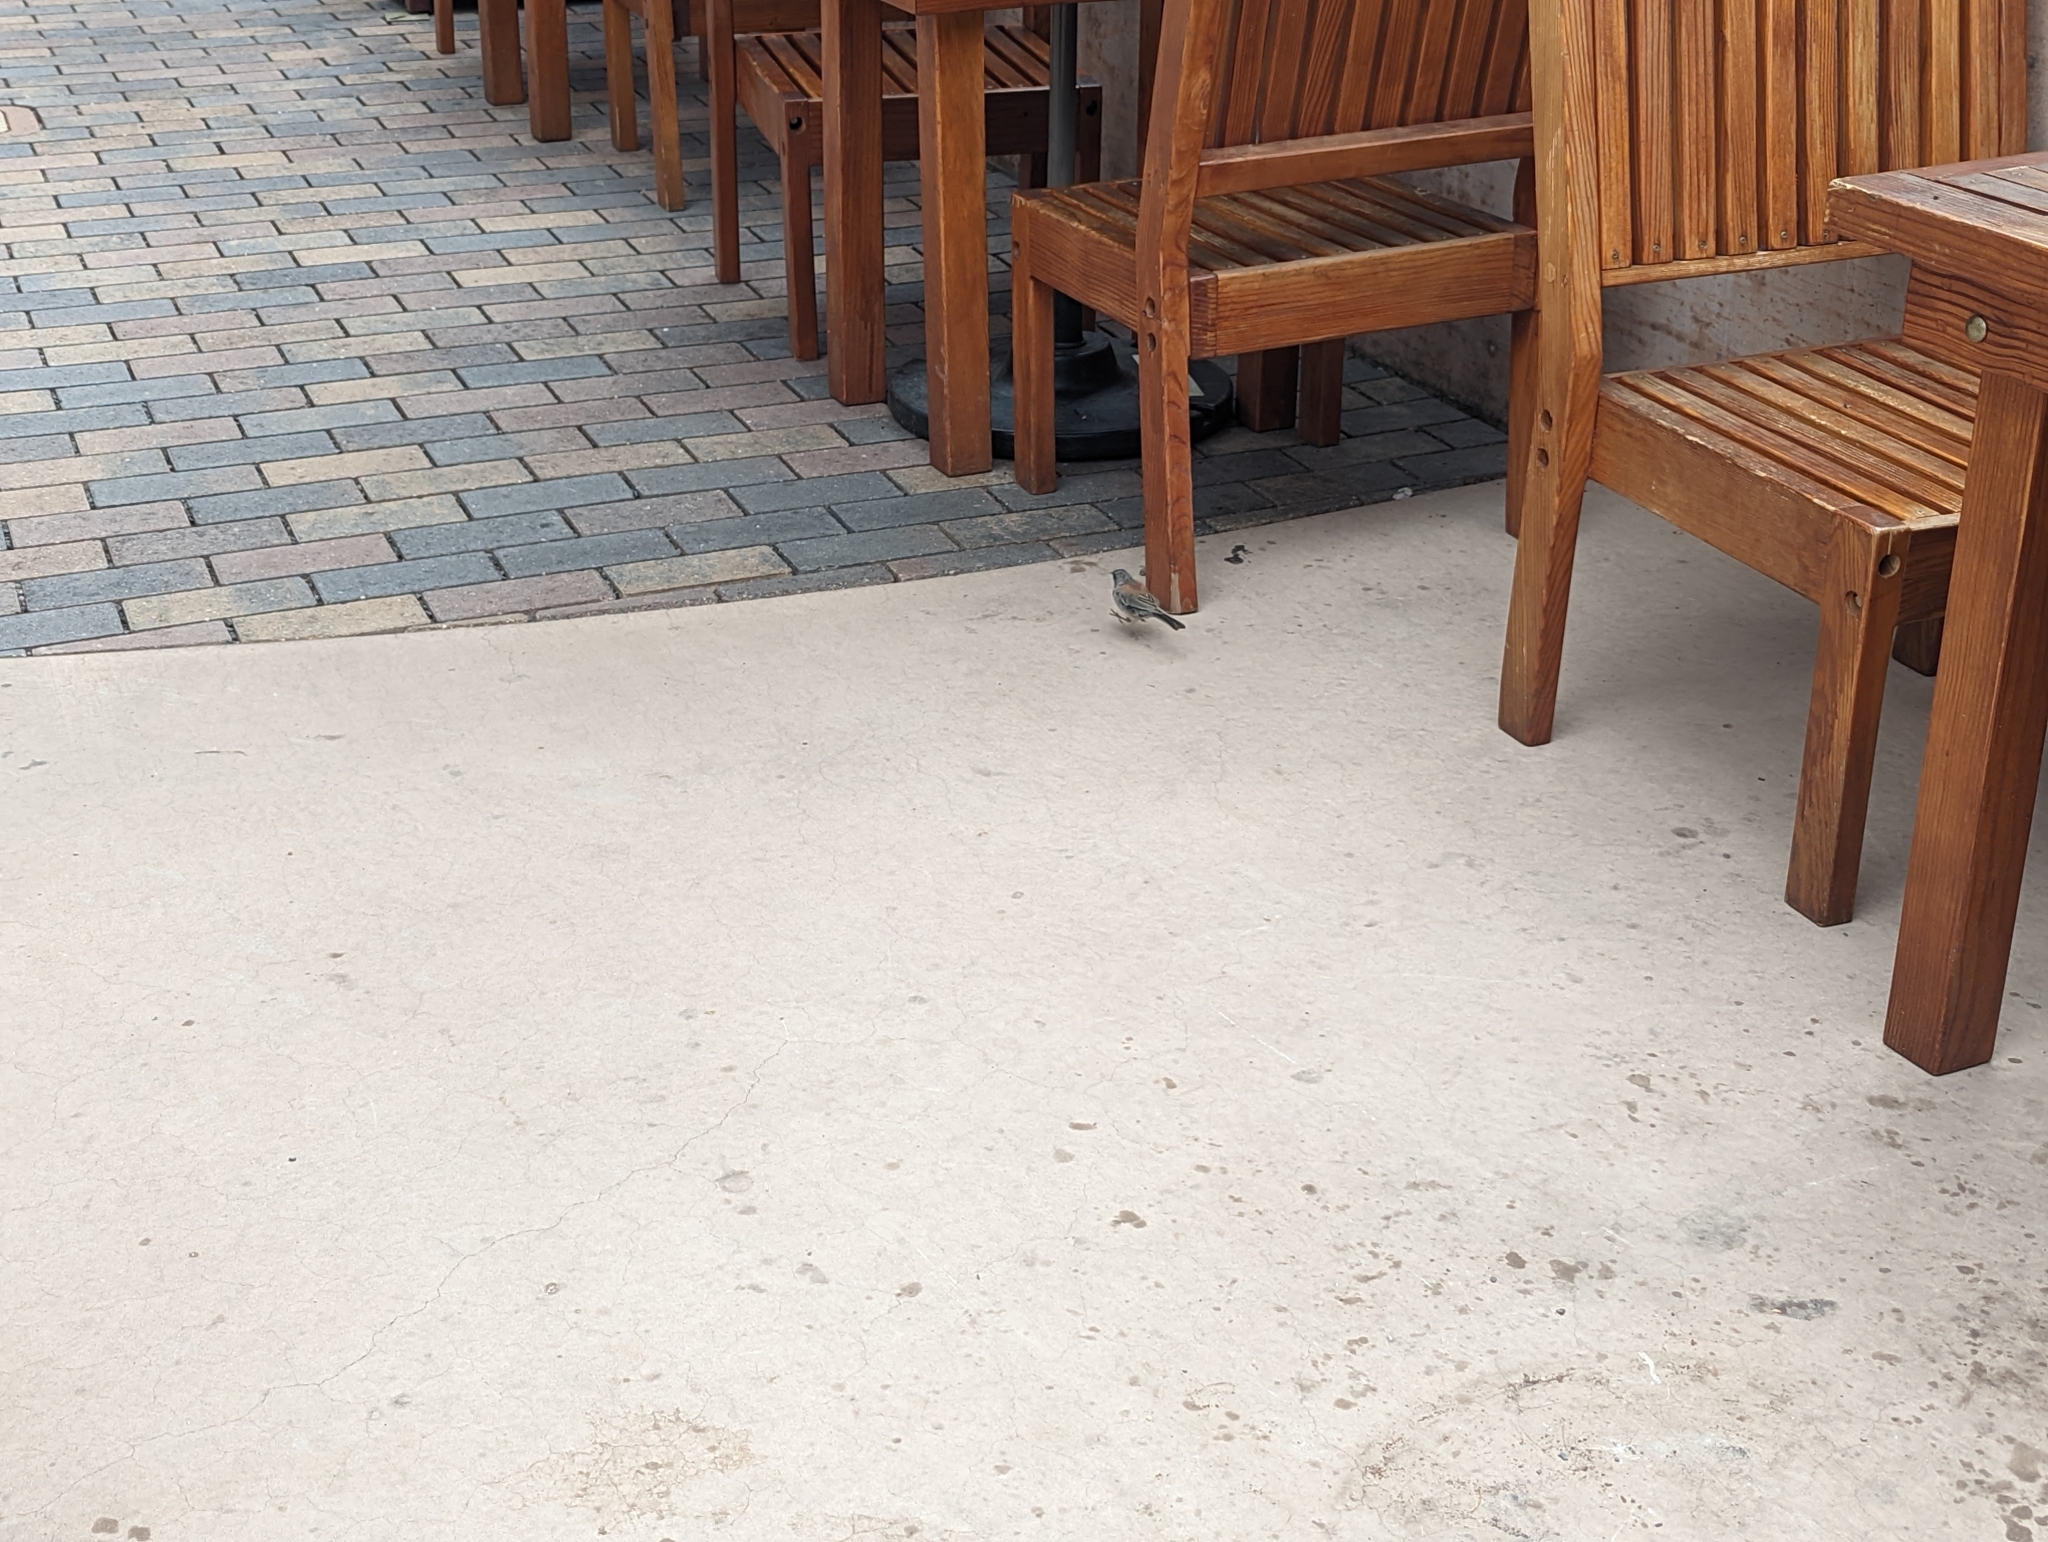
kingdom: Animalia
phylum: Chordata
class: Aves
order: Passeriformes
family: Passerellidae
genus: Junco
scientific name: Junco hyemalis
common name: Dark-eyed junco
